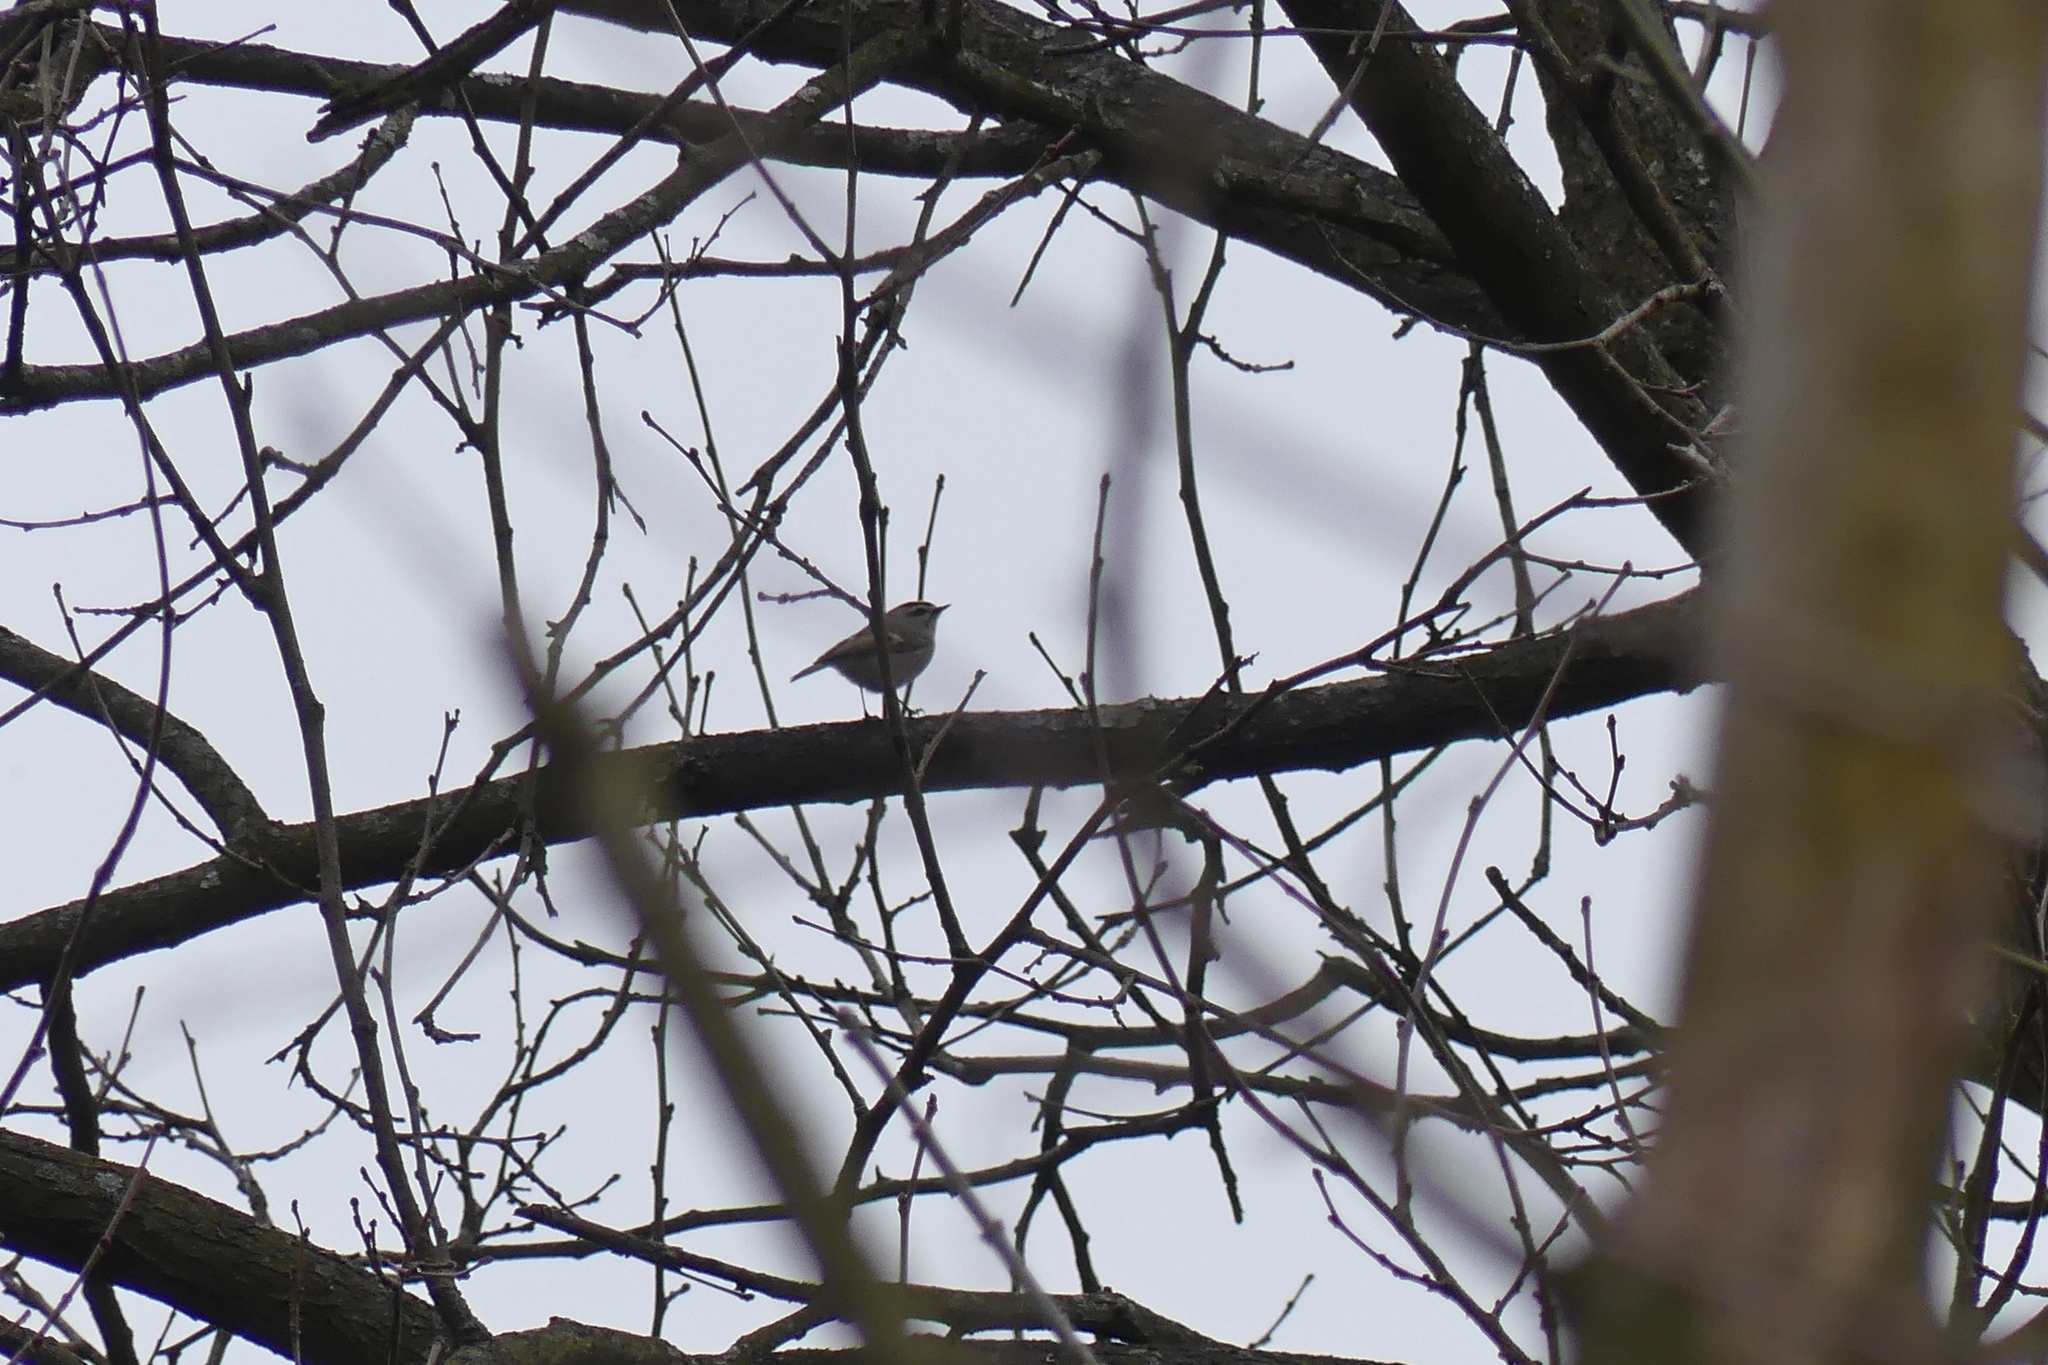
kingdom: Animalia
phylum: Chordata
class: Aves
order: Passeriformes
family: Regulidae
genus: Regulus
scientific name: Regulus satrapa
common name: Golden-crowned kinglet
